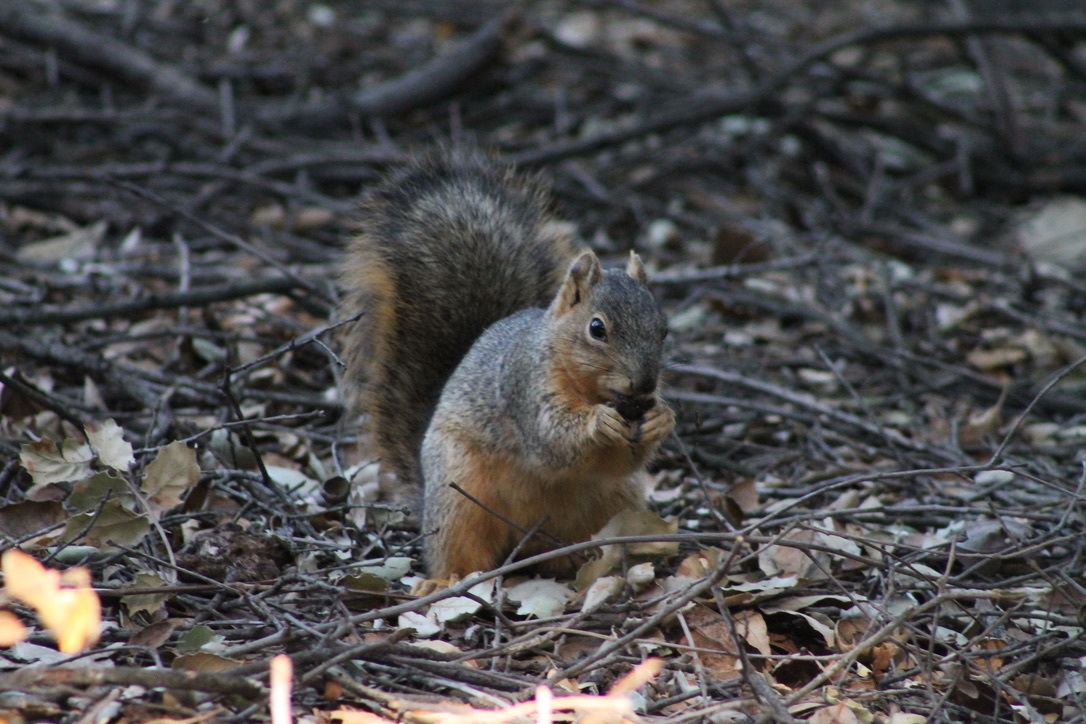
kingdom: Animalia
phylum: Chordata
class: Mammalia
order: Rodentia
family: Sciuridae
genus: Sciurus
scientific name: Sciurus niger
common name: Fox squirrel
